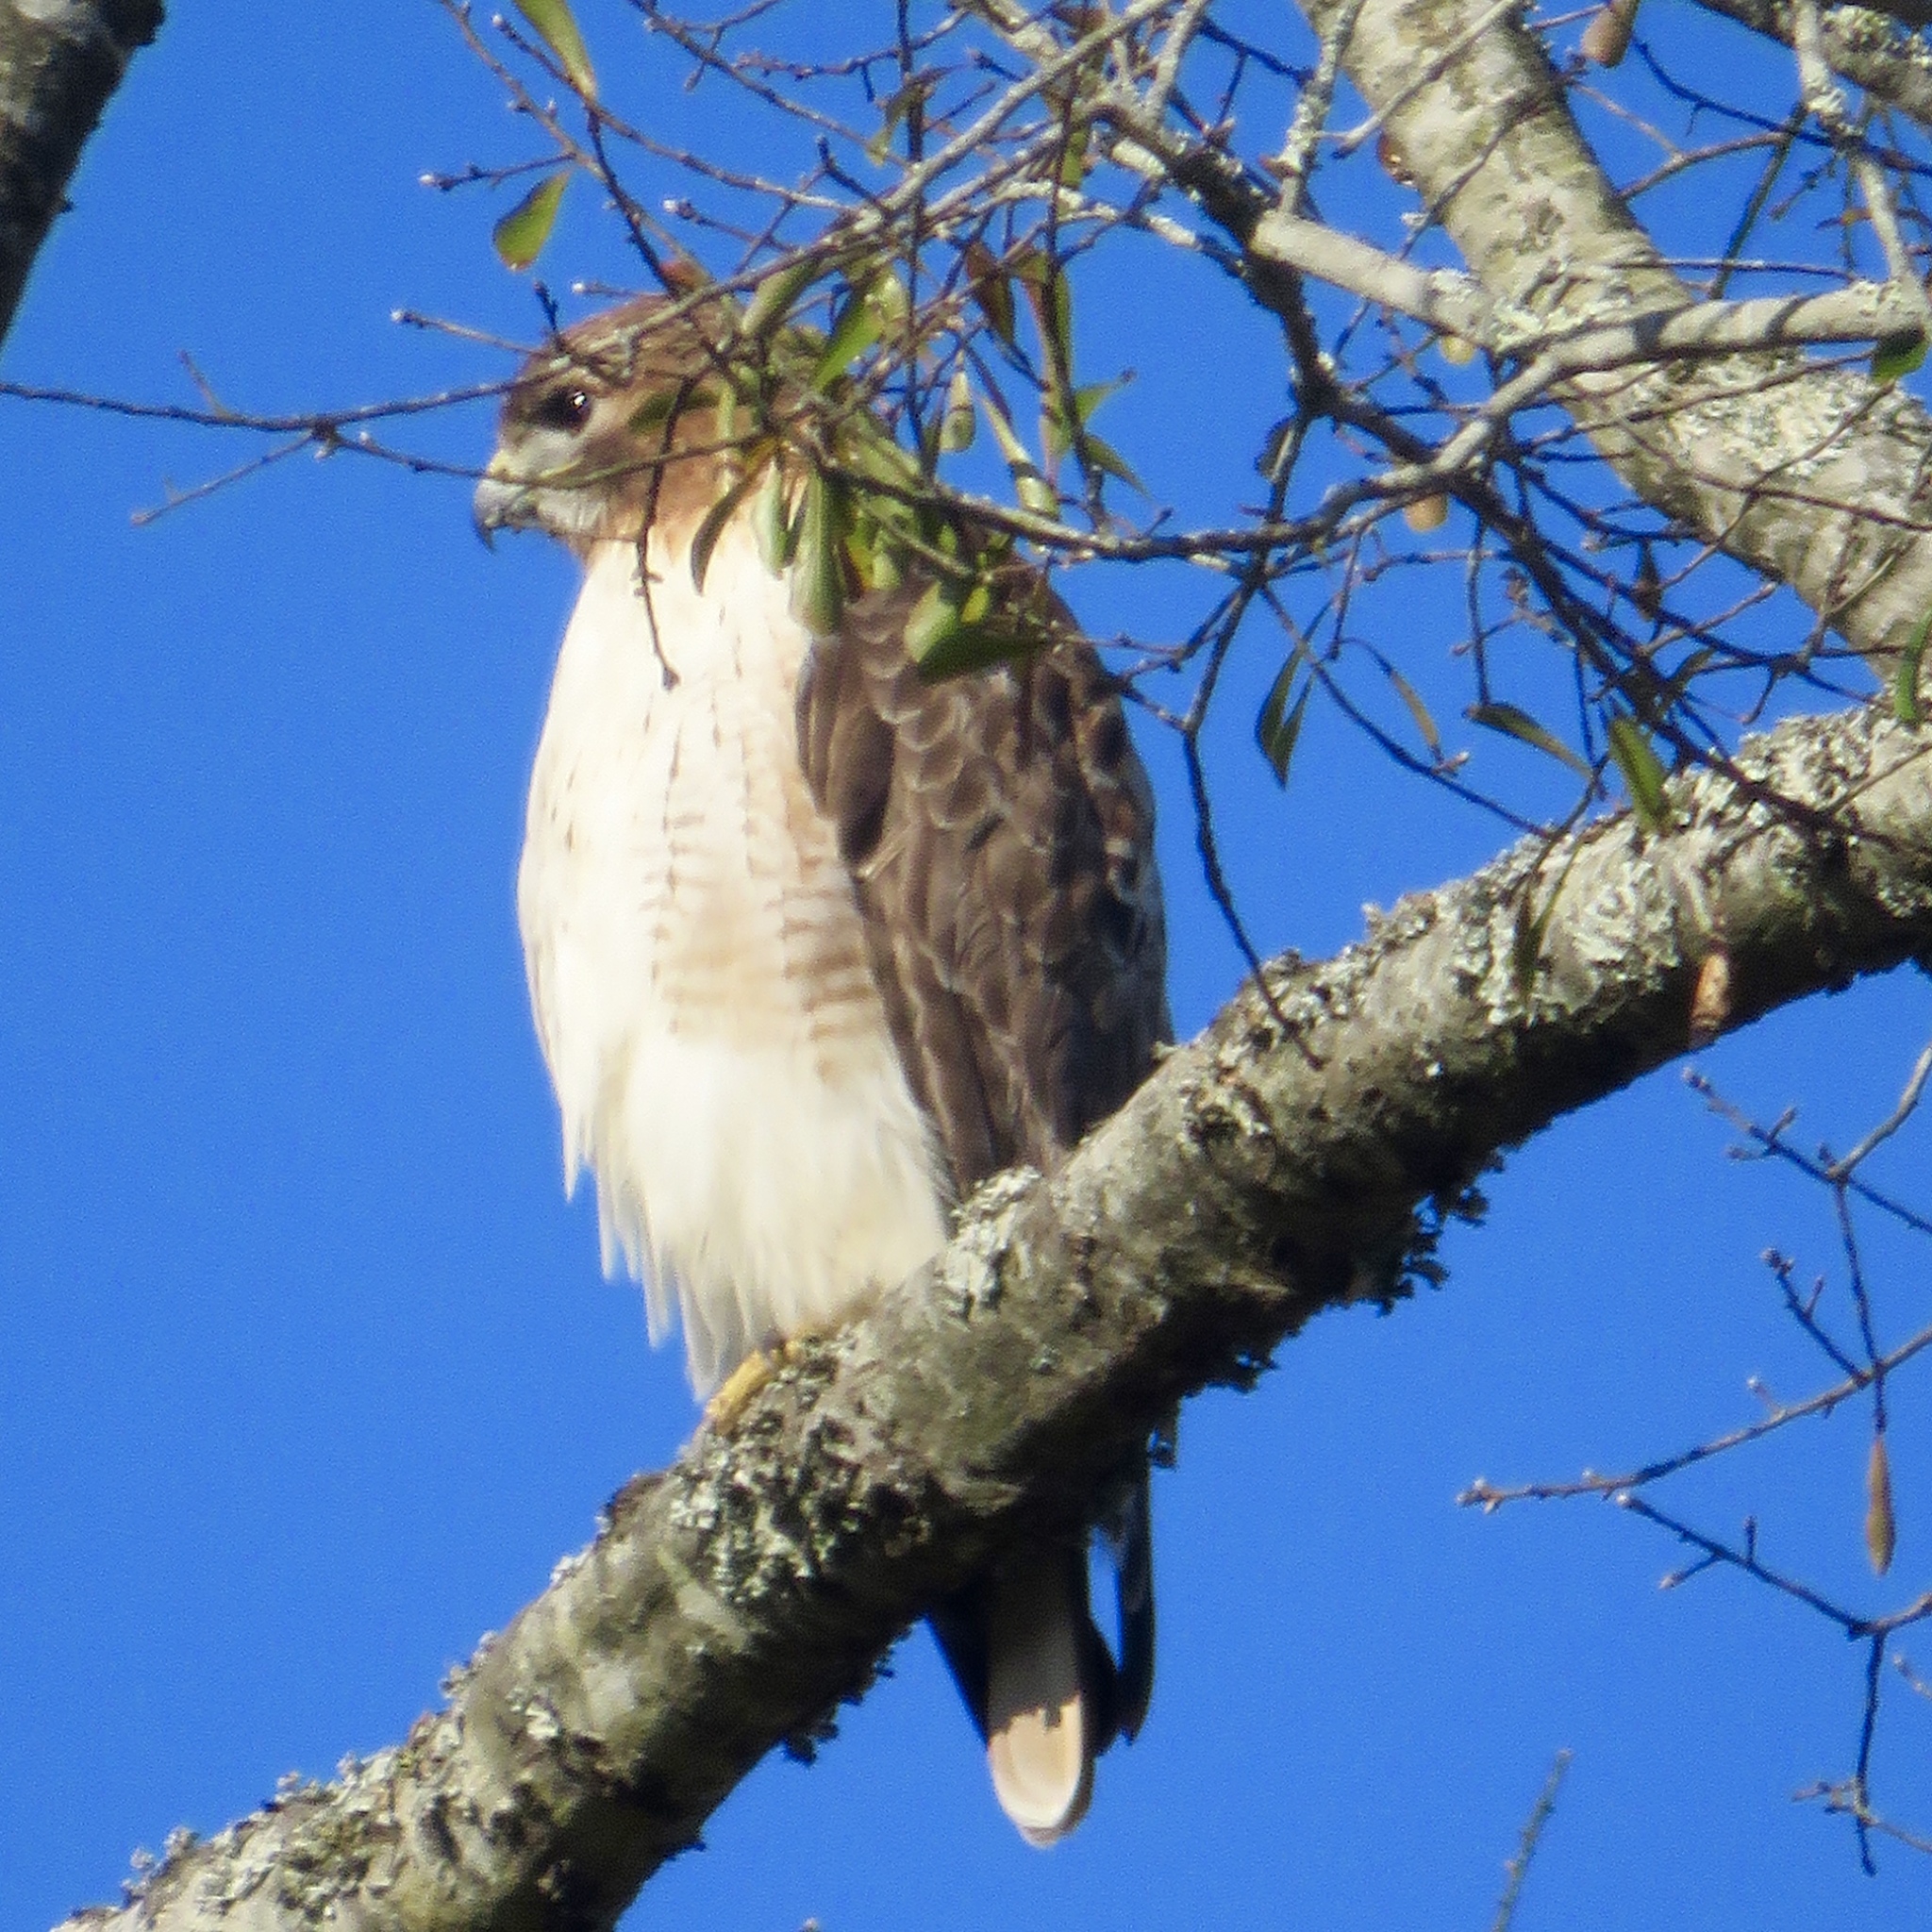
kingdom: Animalia
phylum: Chordata
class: Aves
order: Accipitriformes
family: Accipitridae
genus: Buteo
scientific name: Buteo jamaicensis
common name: Red-tailed hawk
